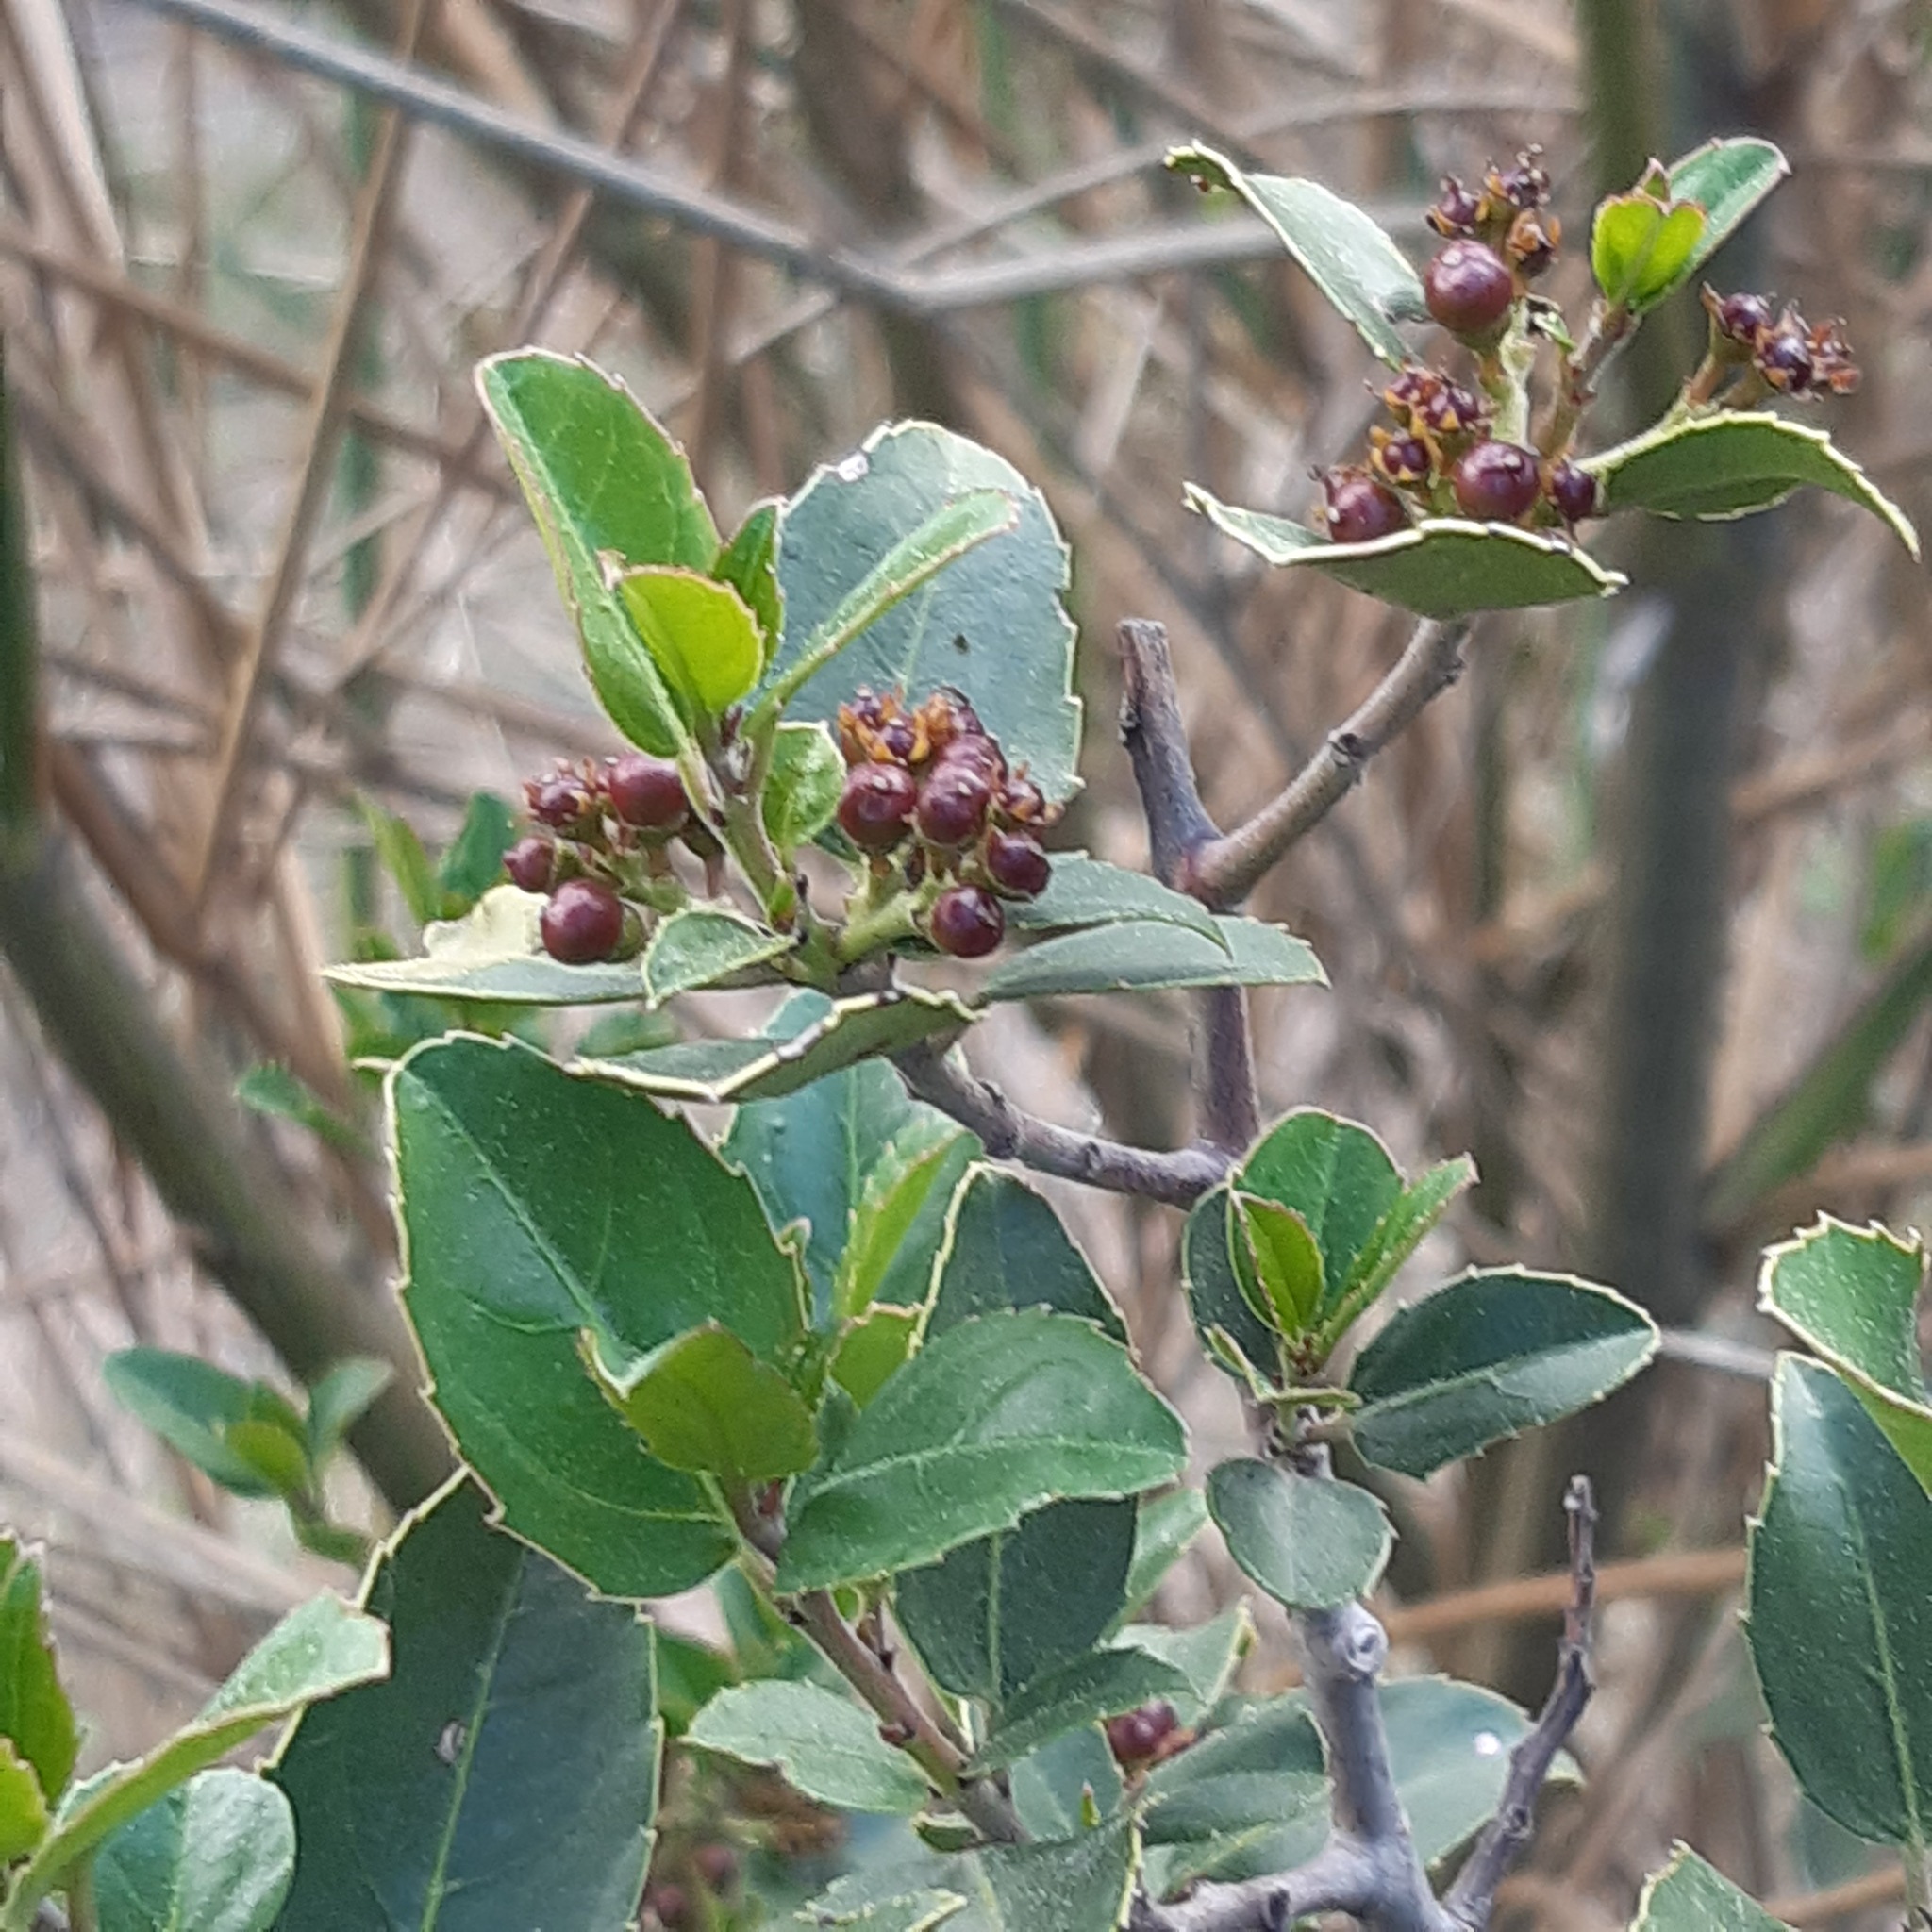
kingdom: Plantae
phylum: Tracheophyta
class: Magnoliopsida
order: Rosales
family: Rhamnaceae
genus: Rhamnus
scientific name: Rhamnus alaternus
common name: Mediterranean buckthorn
